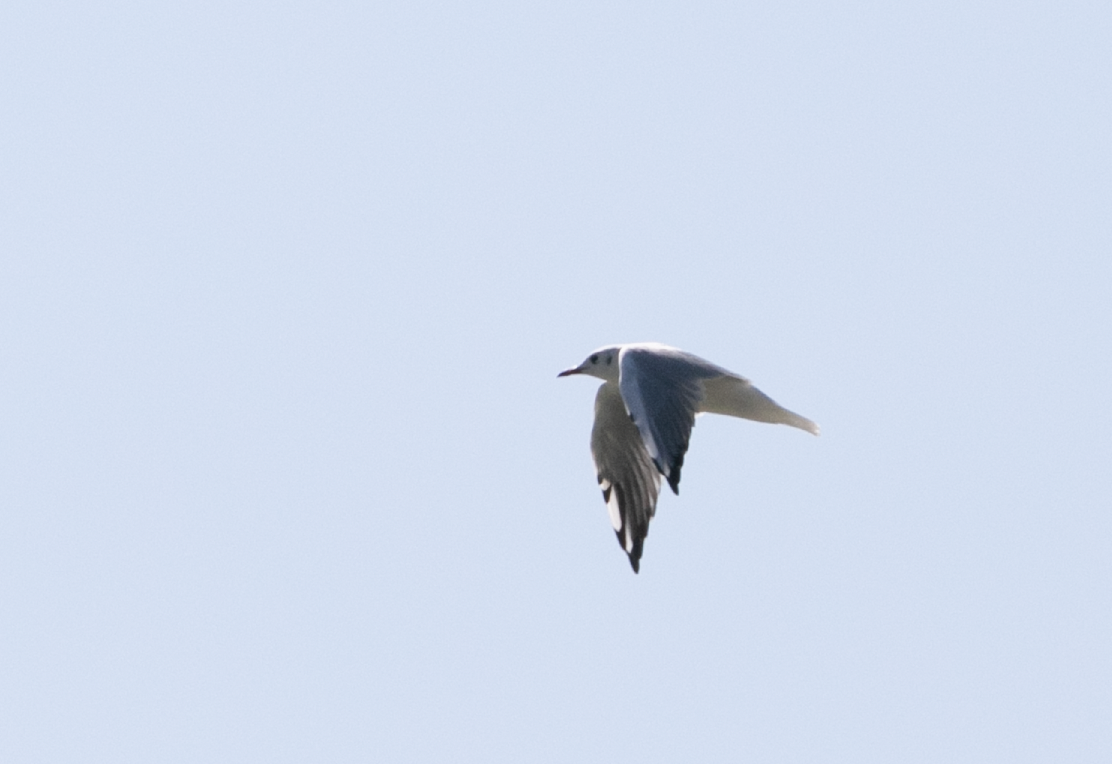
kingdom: Animalia
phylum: Chordata
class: Aves
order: Charadriiformes
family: Laridae
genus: Chroicocephalus
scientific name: Chroicocephalus ridibundus
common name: Black-headed gull
